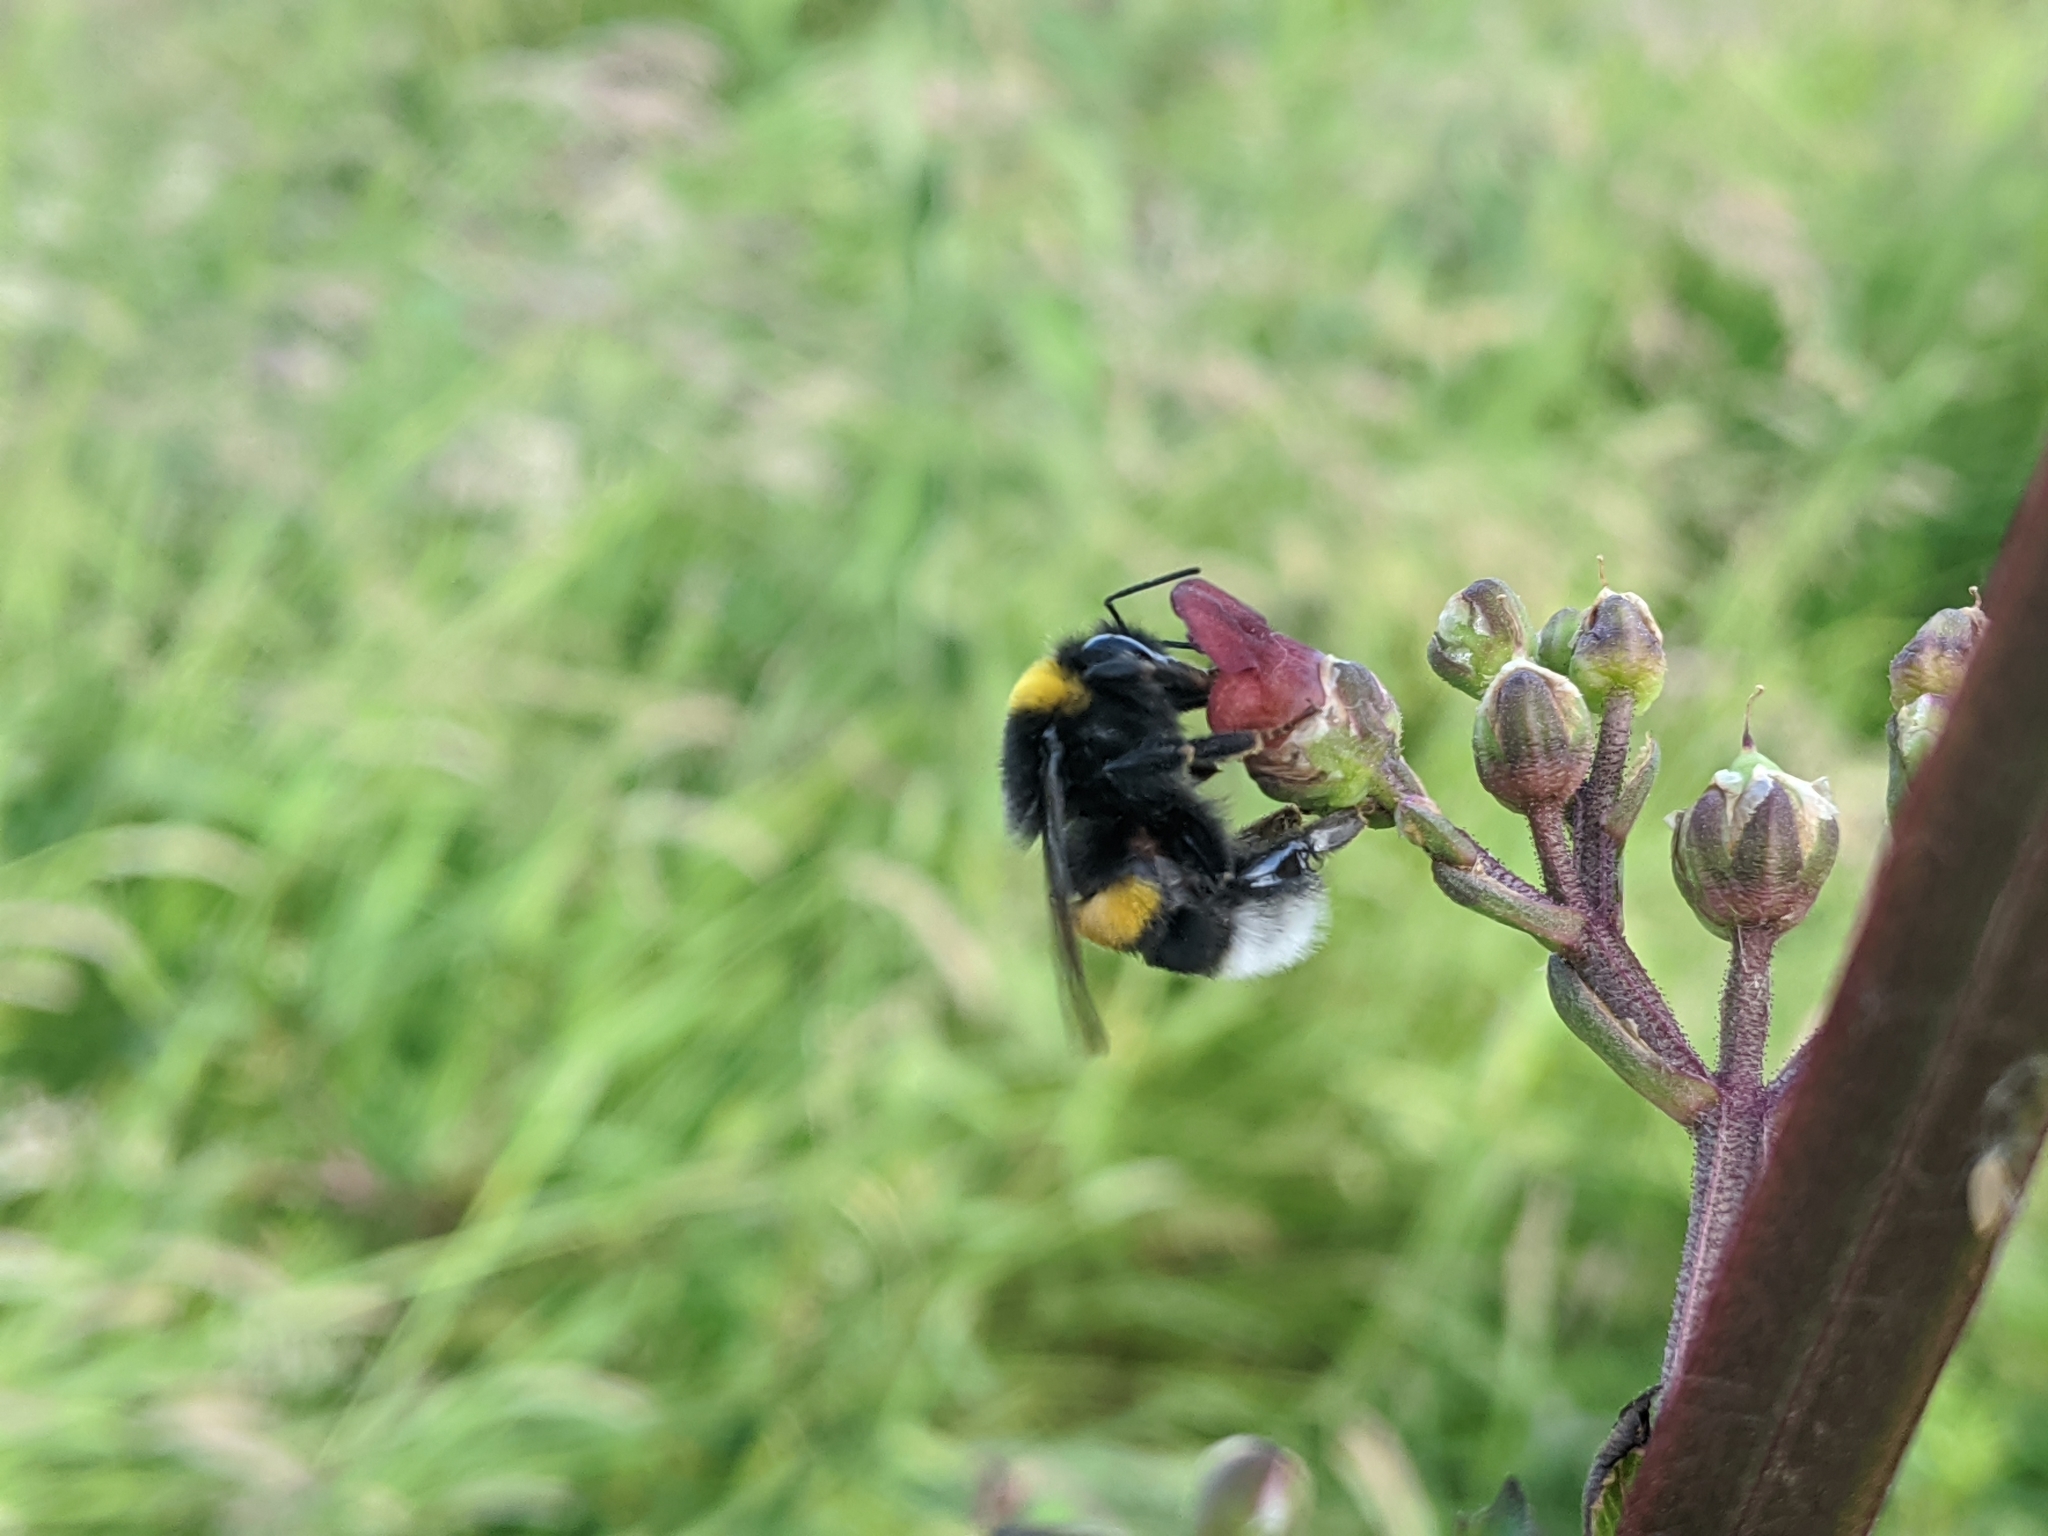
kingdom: Animalia
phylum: Arthropoda
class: Insecta
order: Hymenoptera
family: Apidae
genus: Bombus
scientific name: Bombus
